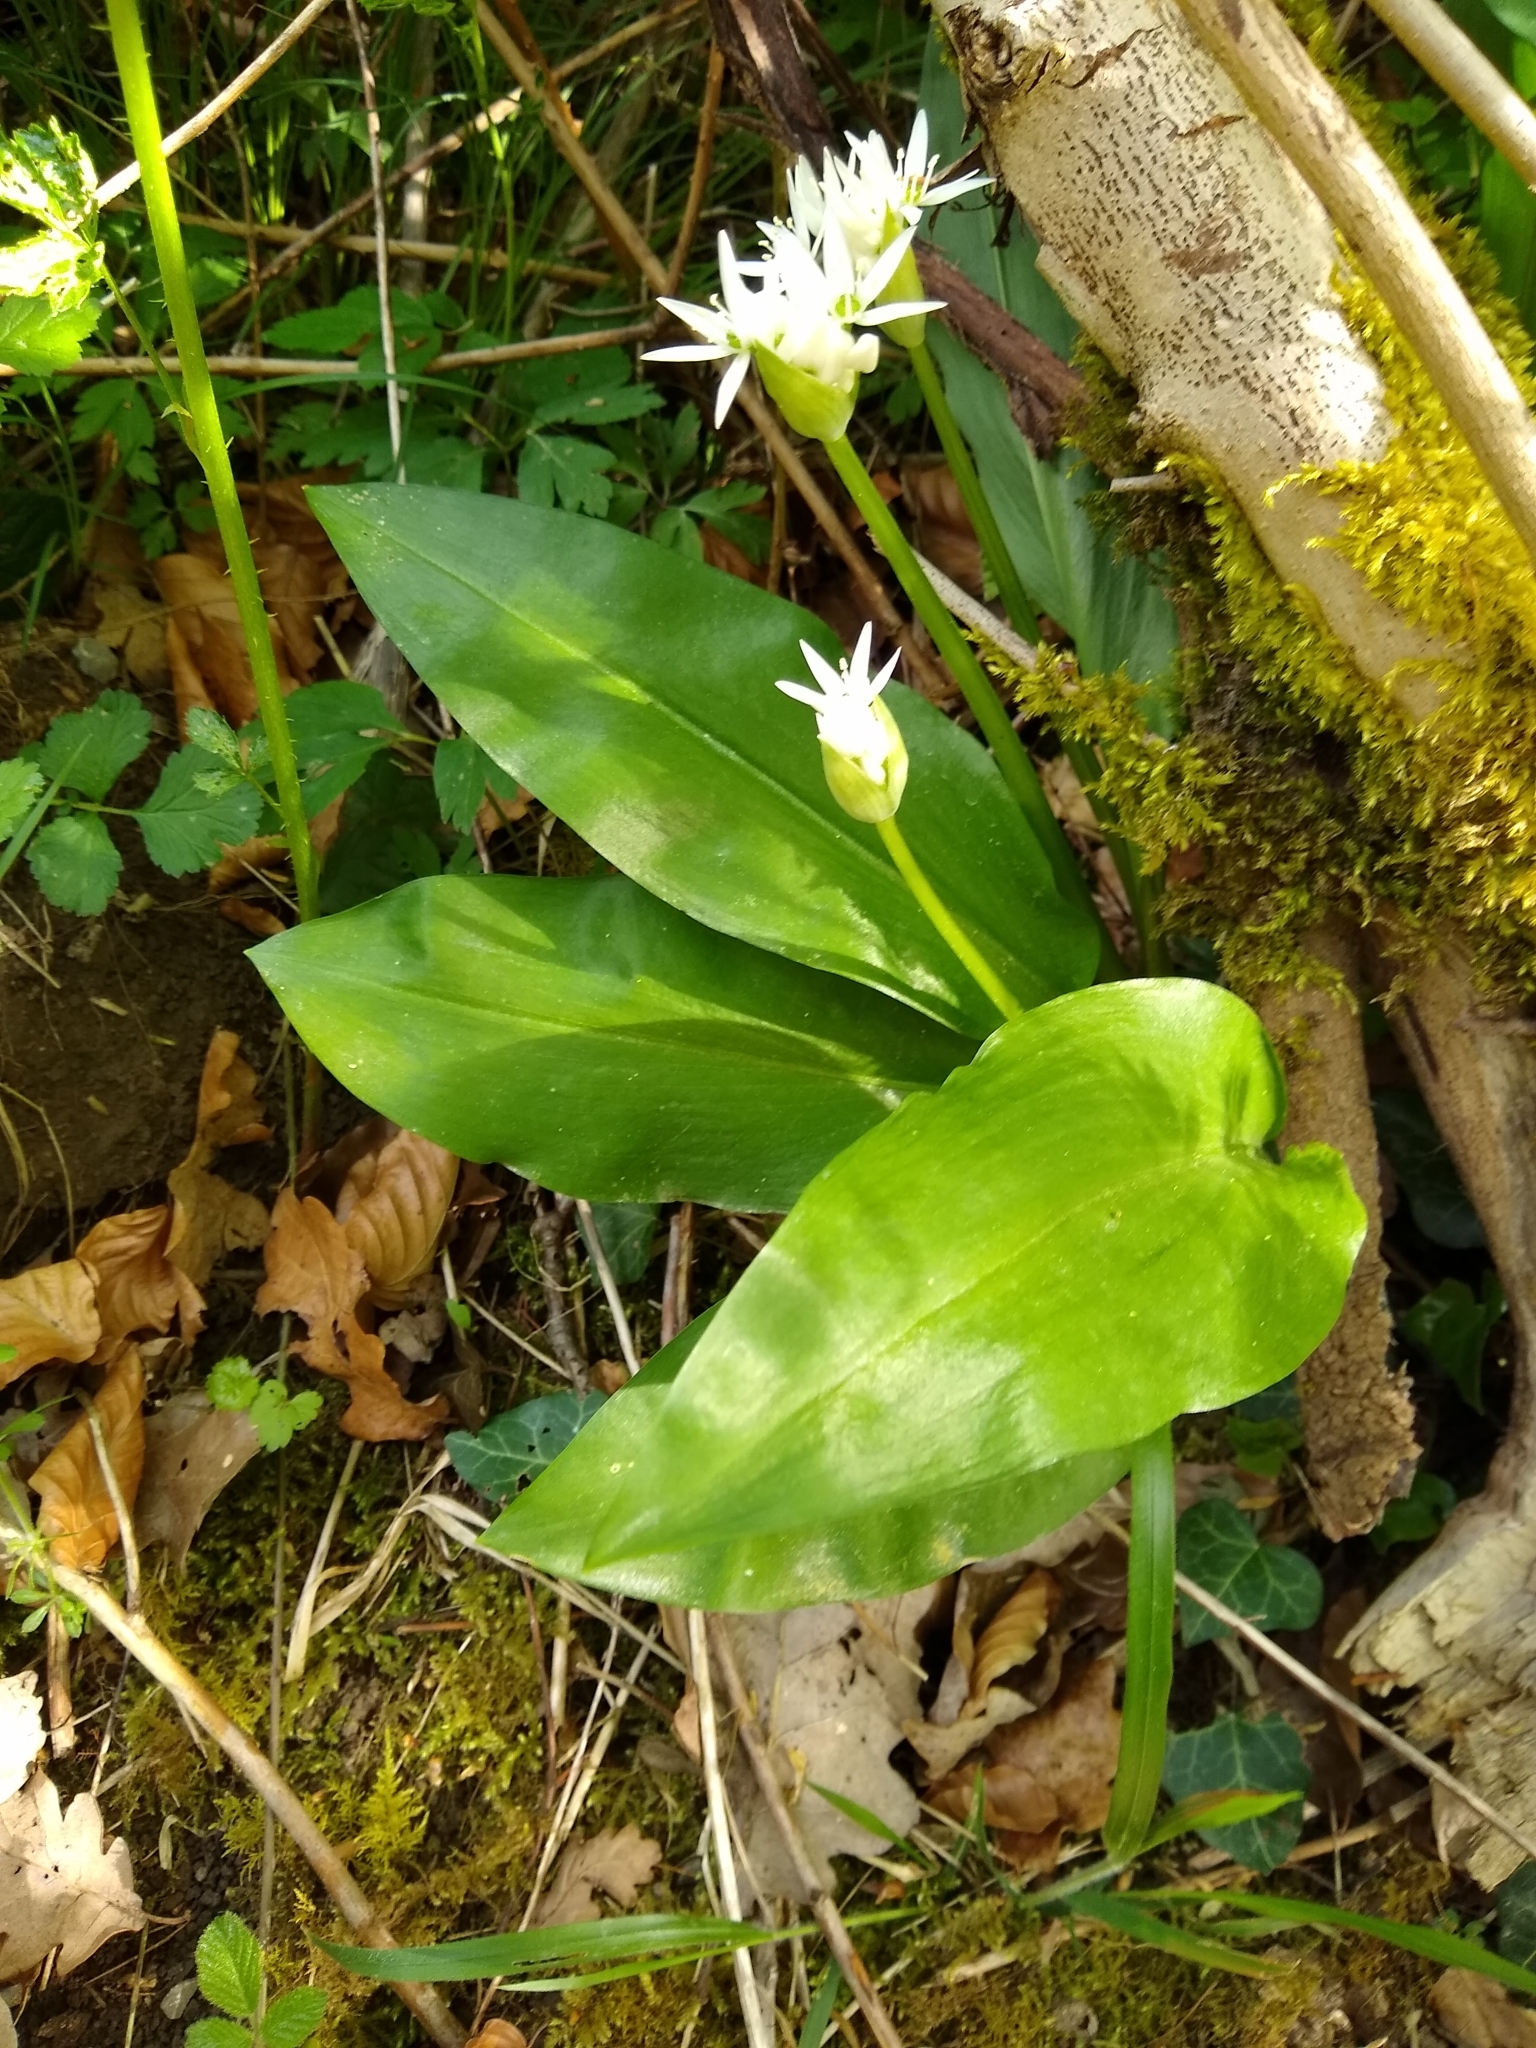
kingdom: Plantae
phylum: Tracheophyta
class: Liliopsida
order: Asparagales
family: Amaryllidaceae
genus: Allium
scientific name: Allium ursinum
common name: Ramsons
